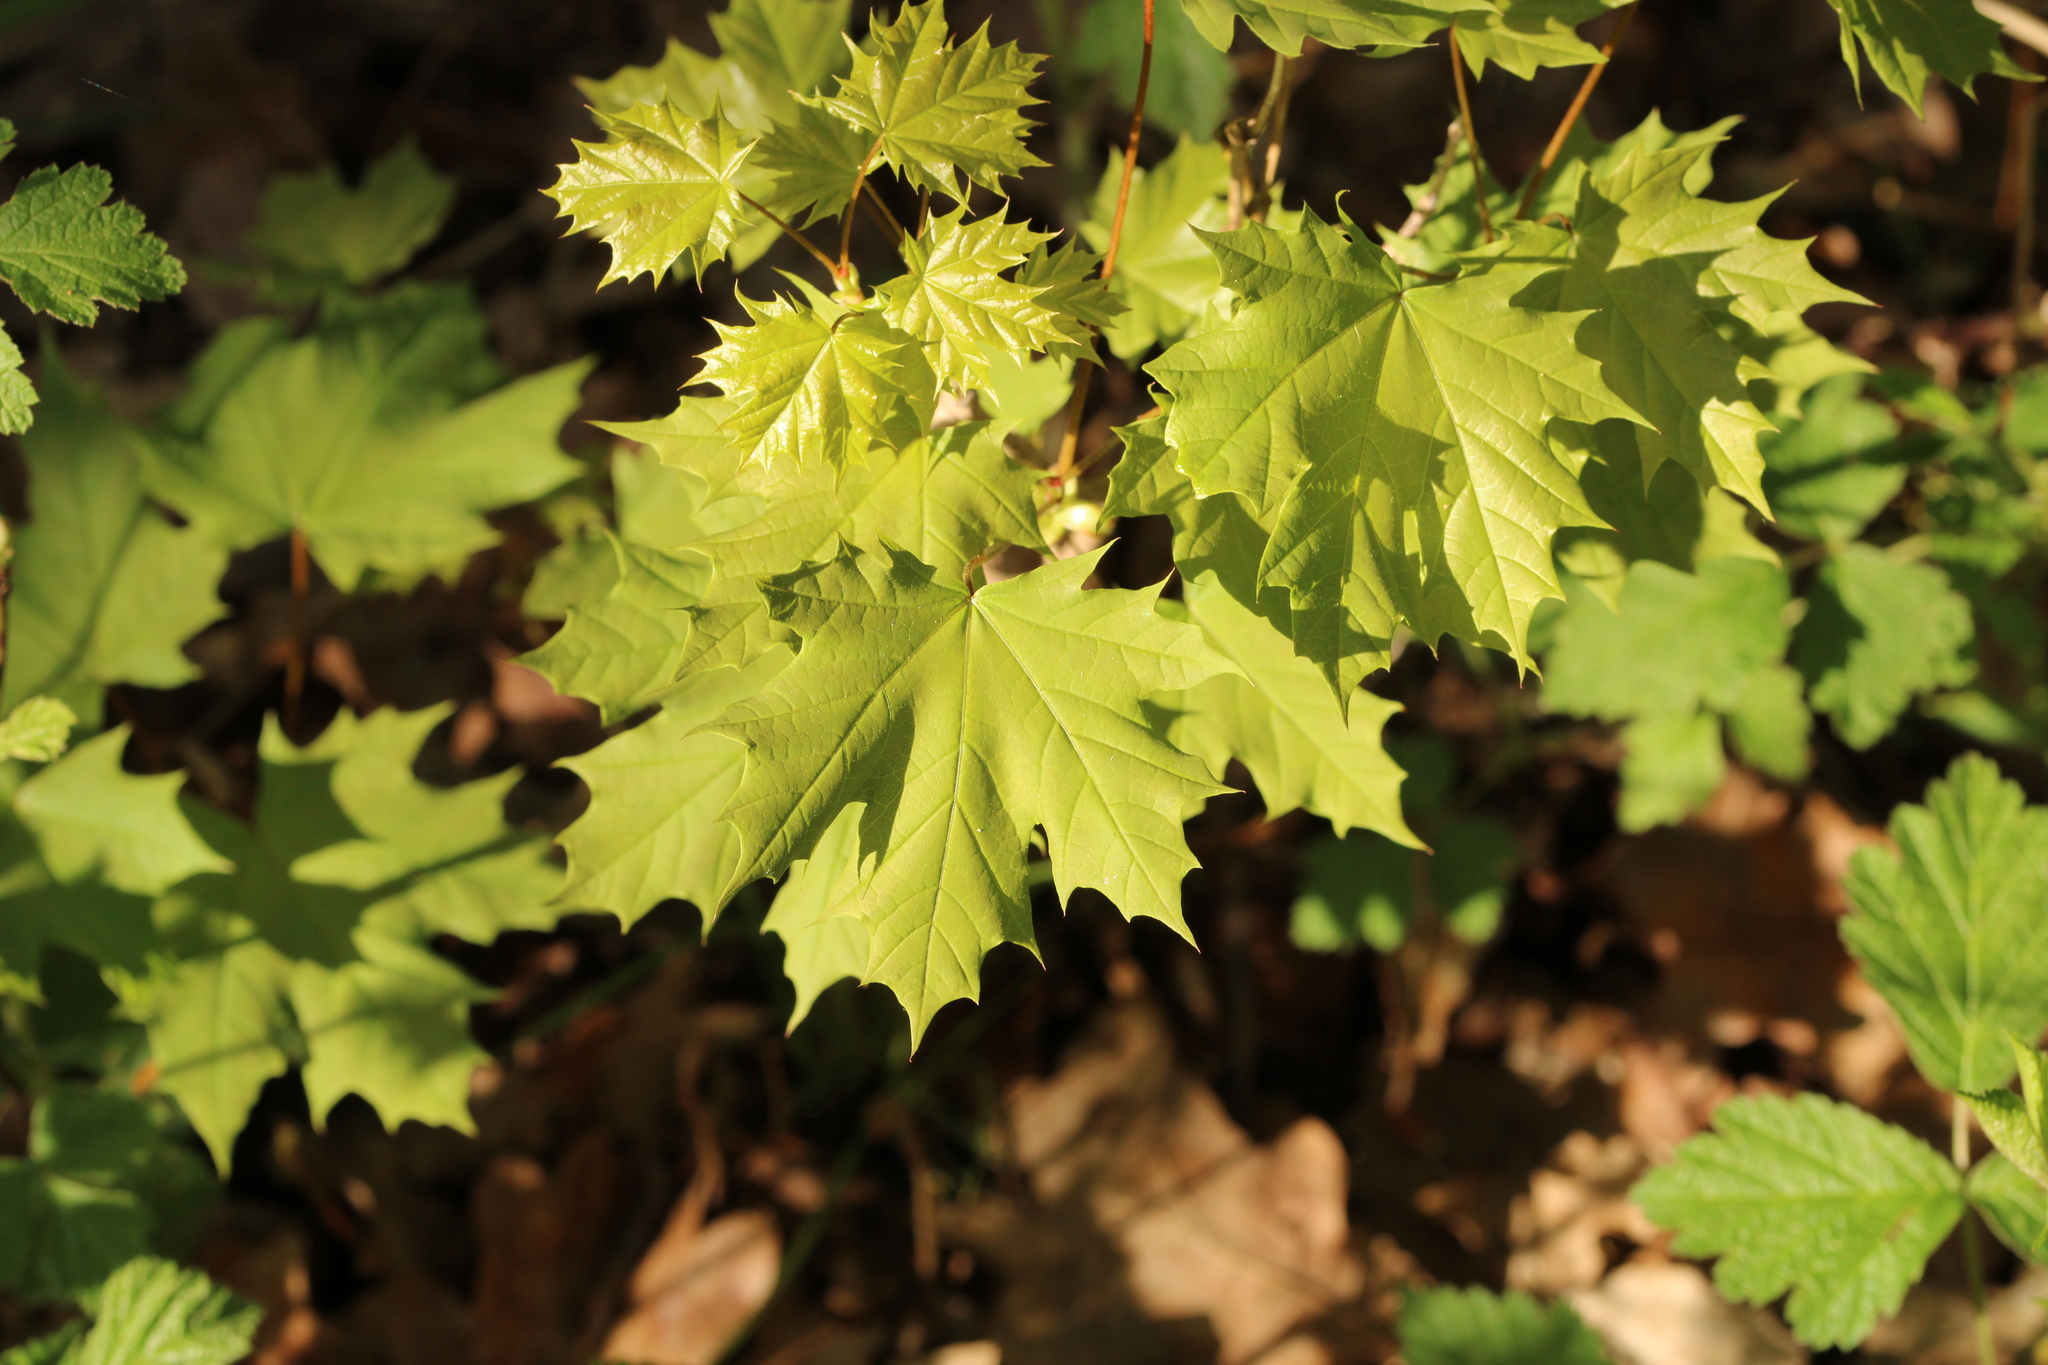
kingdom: Plantae
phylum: Tracheophyta
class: Magnoliopsida
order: Sapindales
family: Sapindaceae
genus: Acer
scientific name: Acer platanoides
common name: Norway maple
